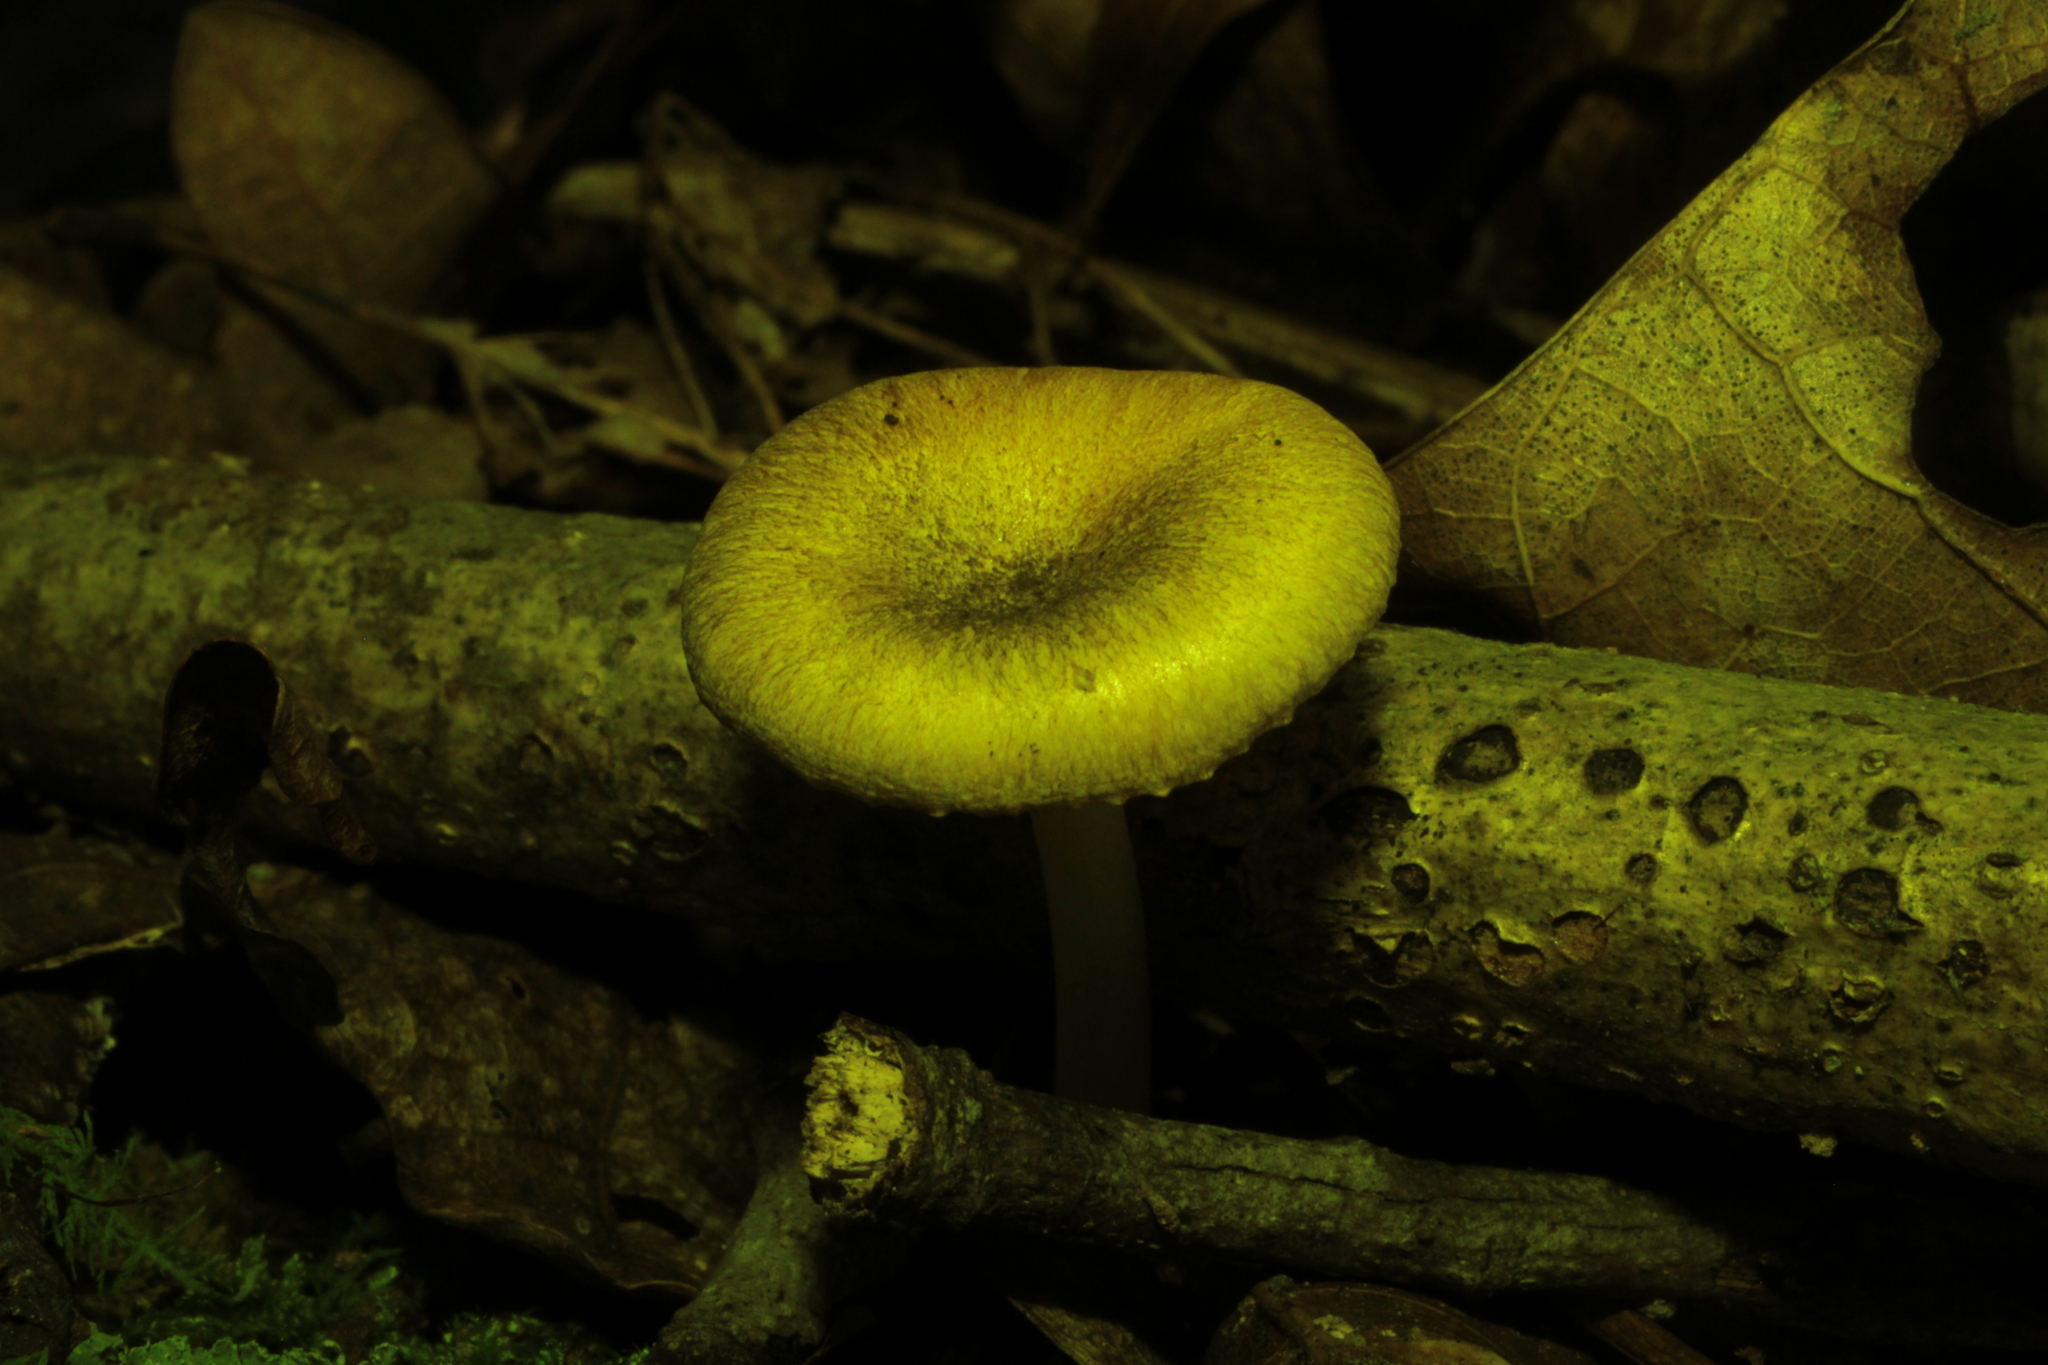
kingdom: Fungi
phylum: Basidiomycota
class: Agaricomycetes
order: Agaricales
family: Marasmiaceae
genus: Gerronema
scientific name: Gerronema strombodes
